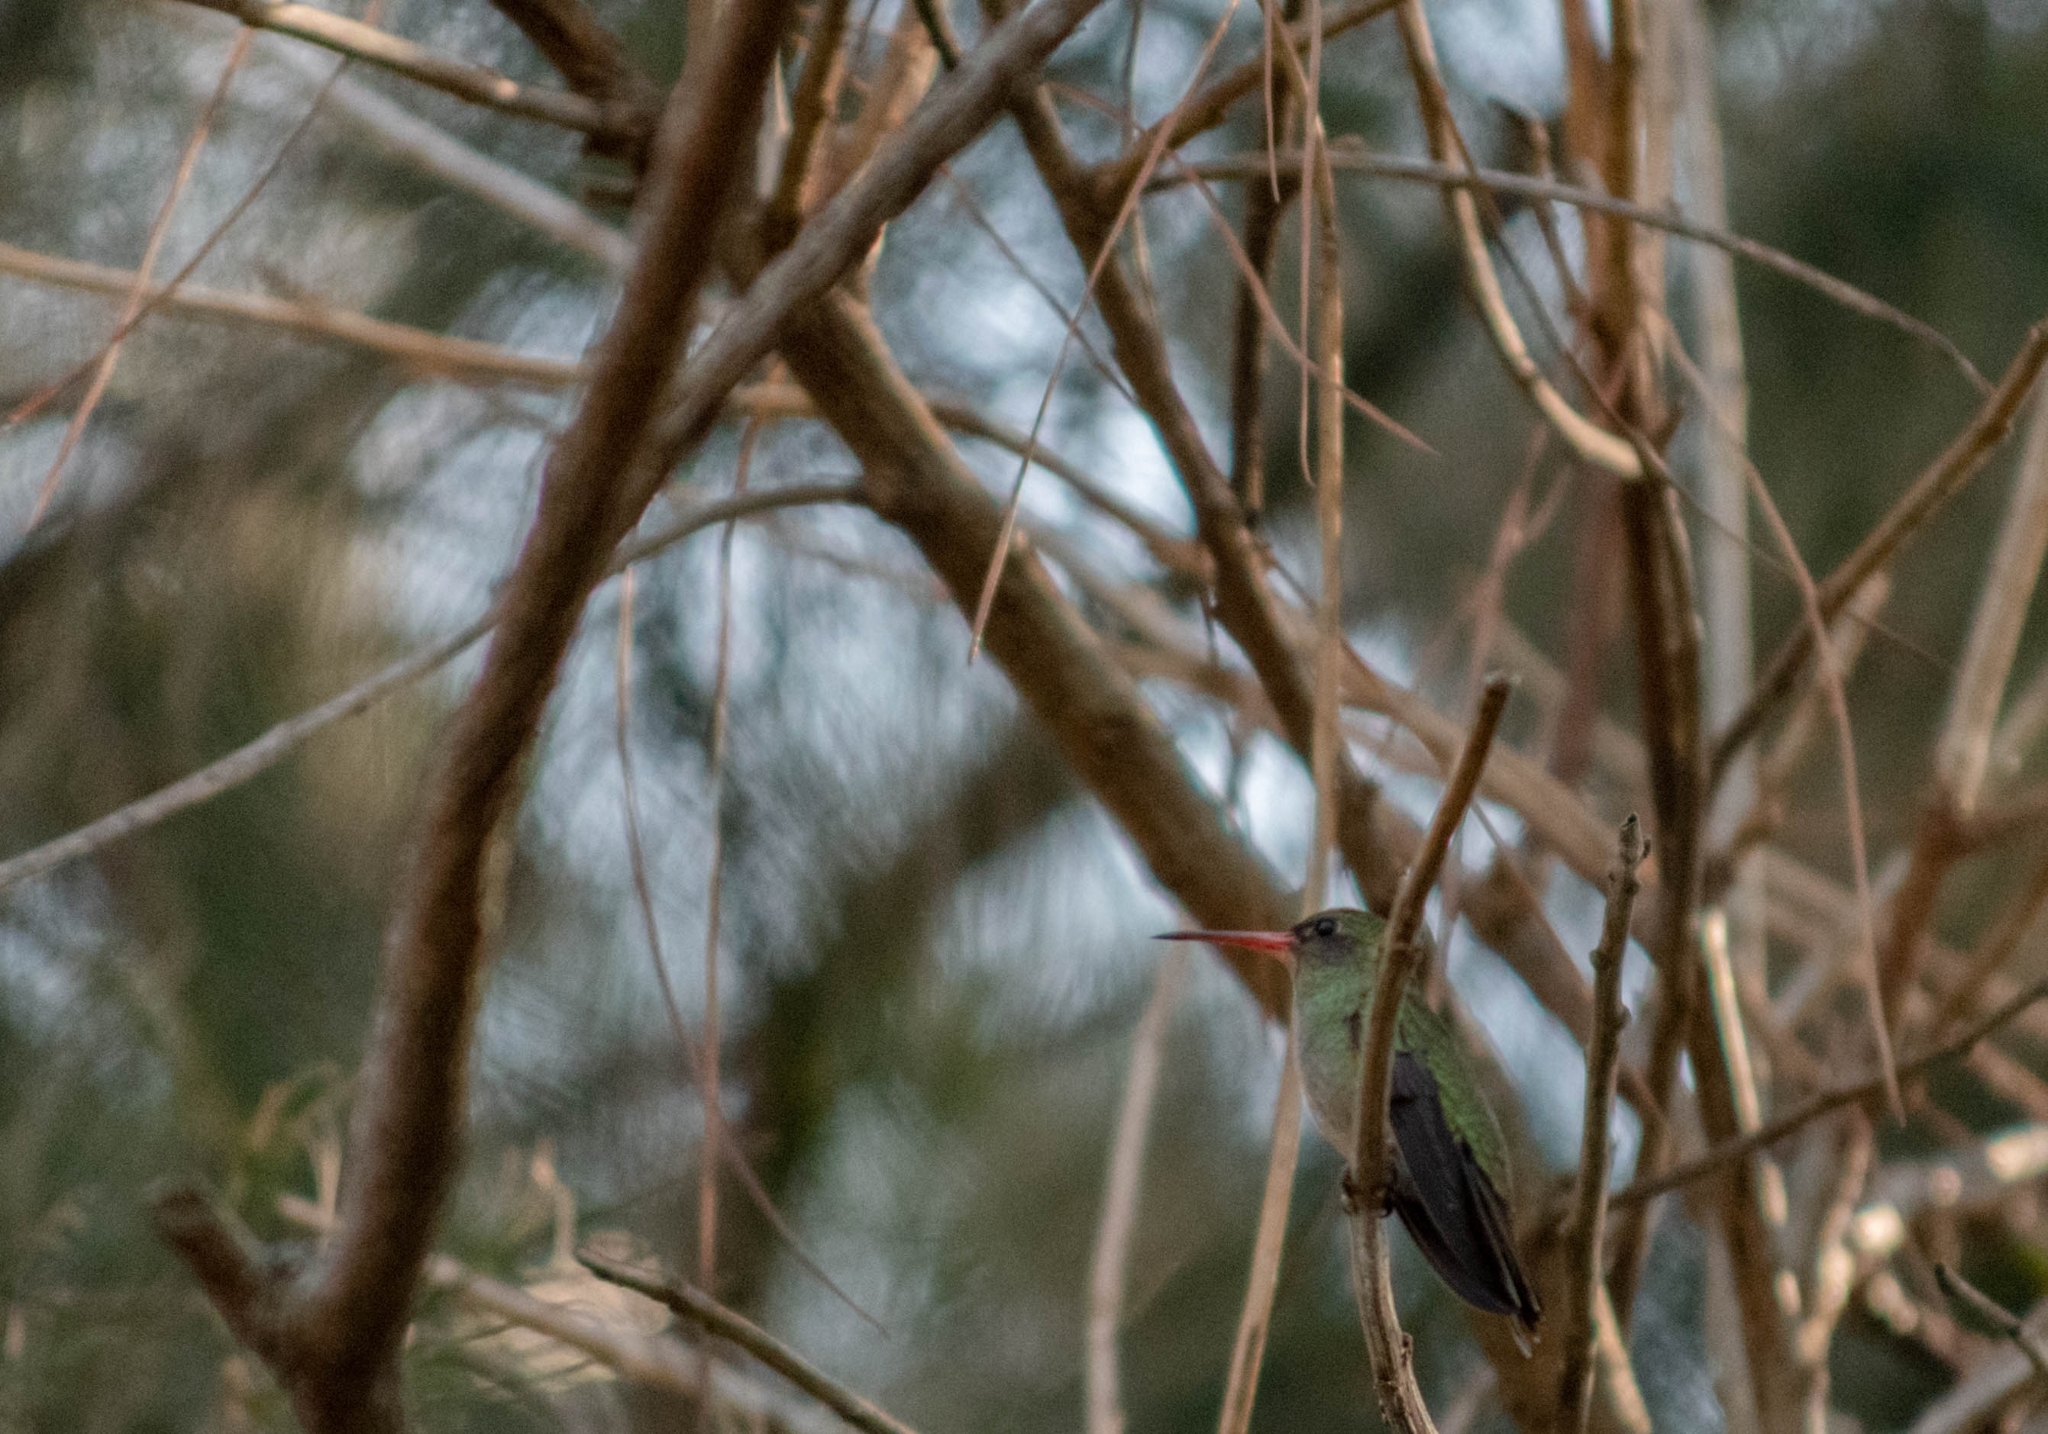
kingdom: Animalia
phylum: Chordata
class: Aves
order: Apodiformes
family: Trochilidae
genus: Hylocharis
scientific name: Hylocharis chrysura
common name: Gilded sapphire
